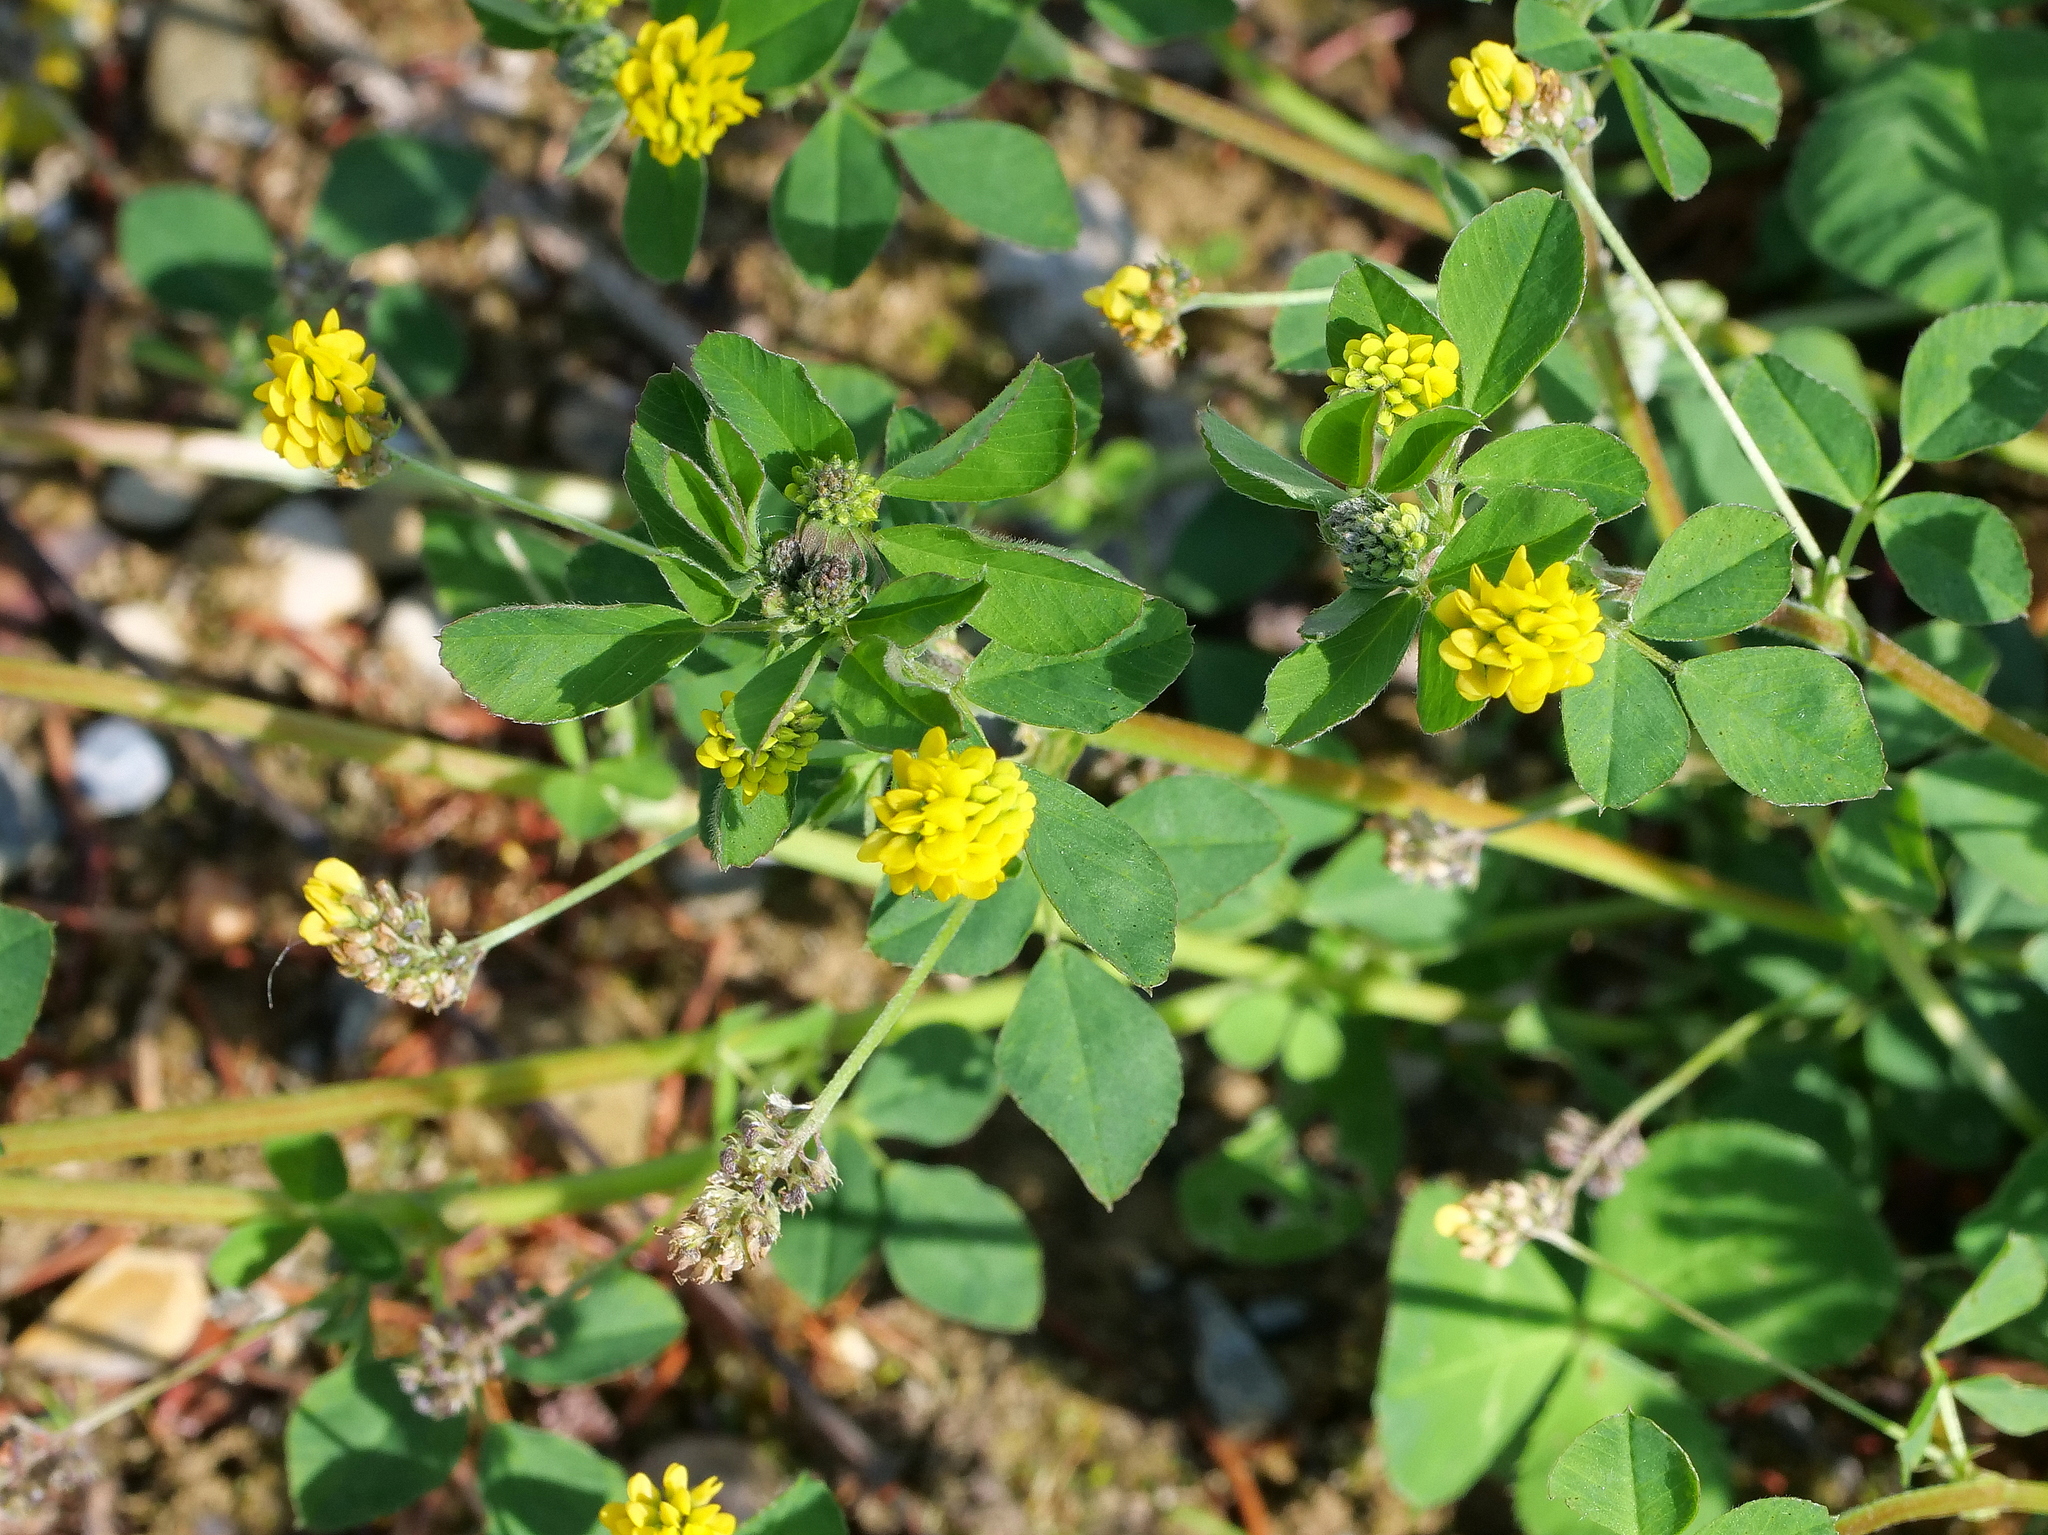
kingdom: Plantae
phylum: Tracheophyta
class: Magnoliopsida
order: Fabales
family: Fabaceae
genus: Medicago
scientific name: Medicago lupulina
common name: Black medick
